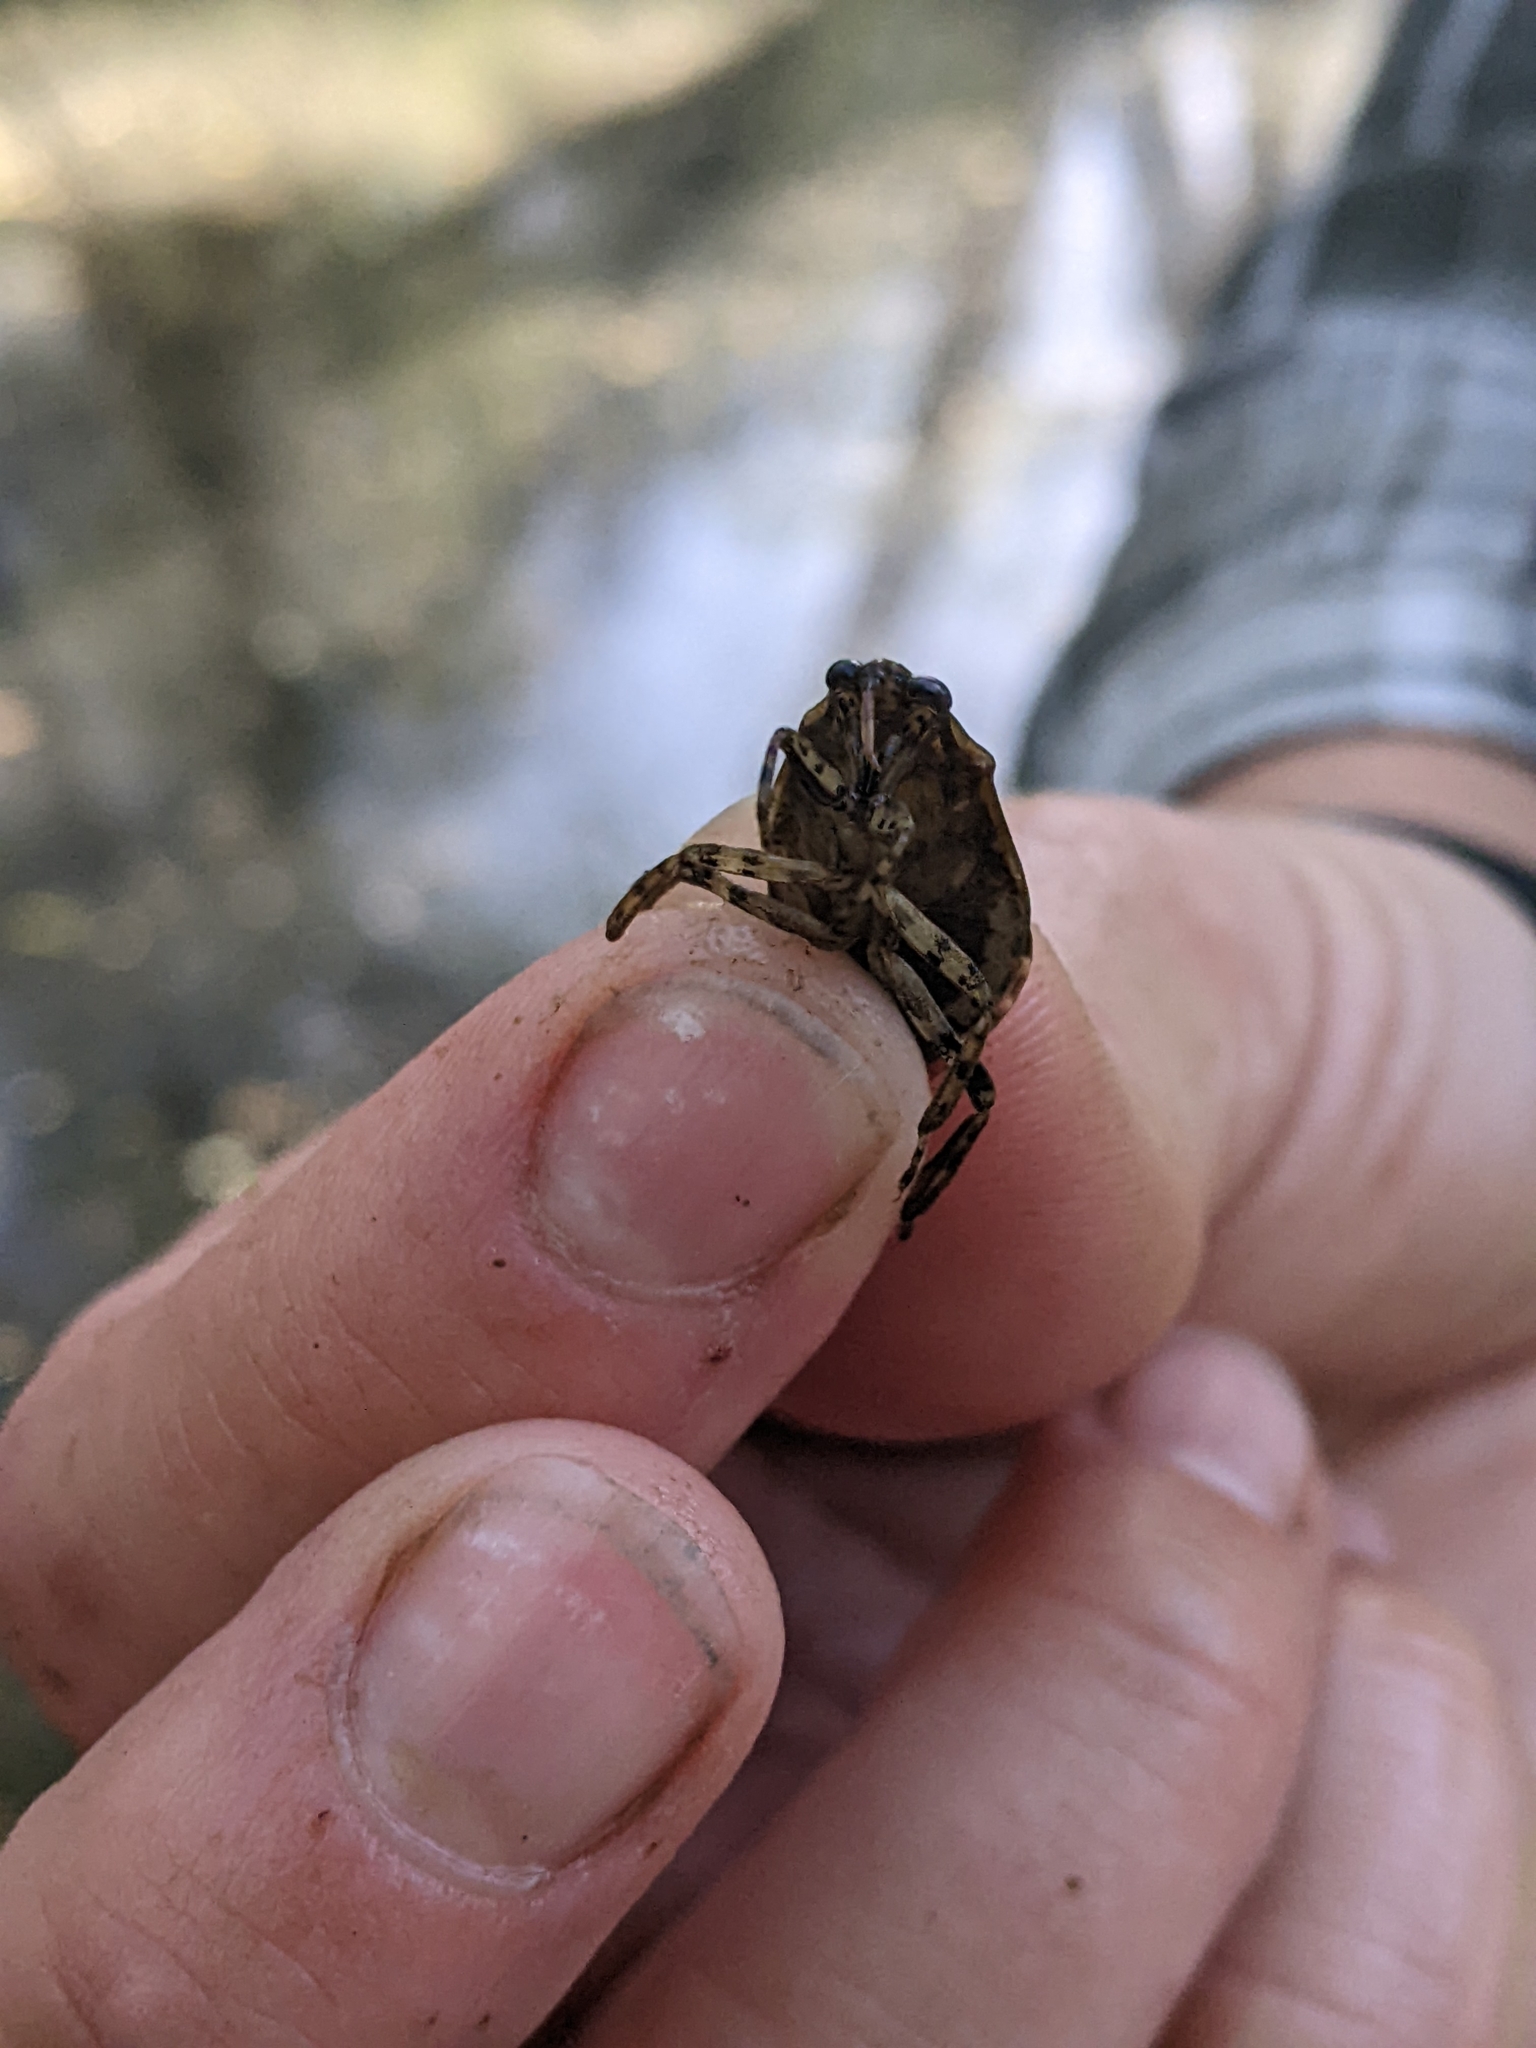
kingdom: Animalia
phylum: Arthropoda
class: Insecta
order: Hemiptera
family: Belostomatidae
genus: Belostoma
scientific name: Belostoma
